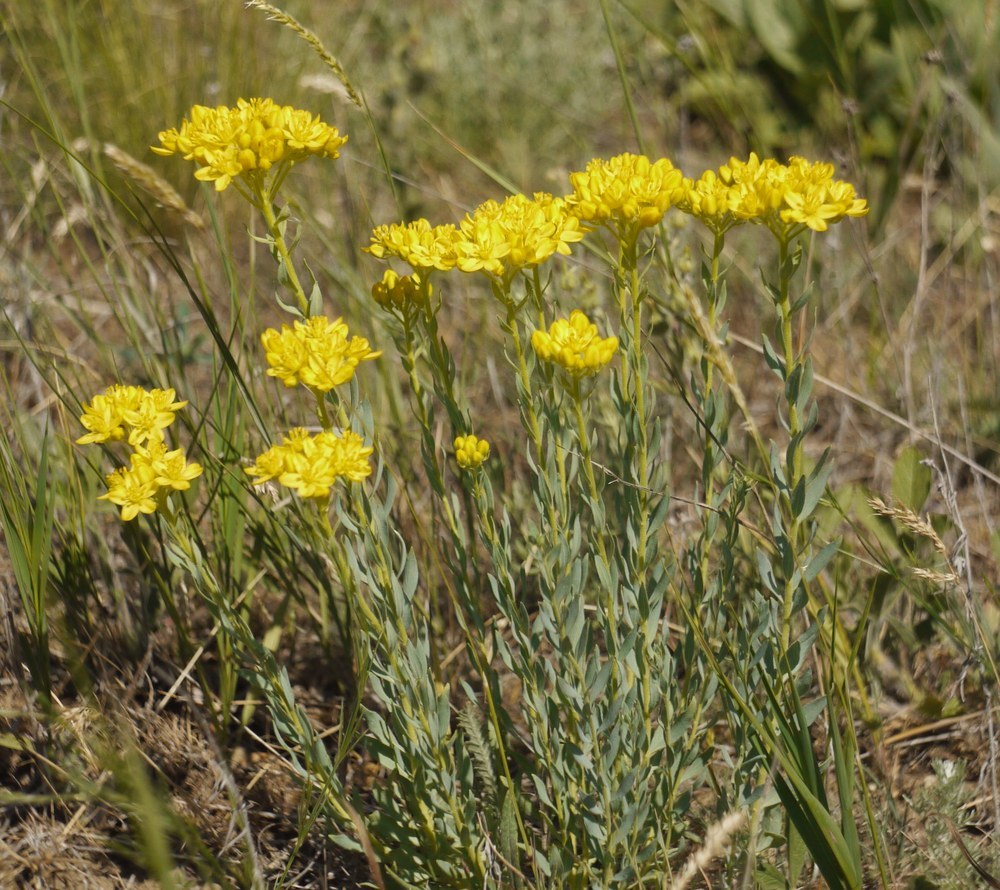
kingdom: Plantae
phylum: Tracheophyta
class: Magnoliopsida
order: Sapindales
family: Rutaceae
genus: Haplophyllum
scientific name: Haplophyllum suaveolens
